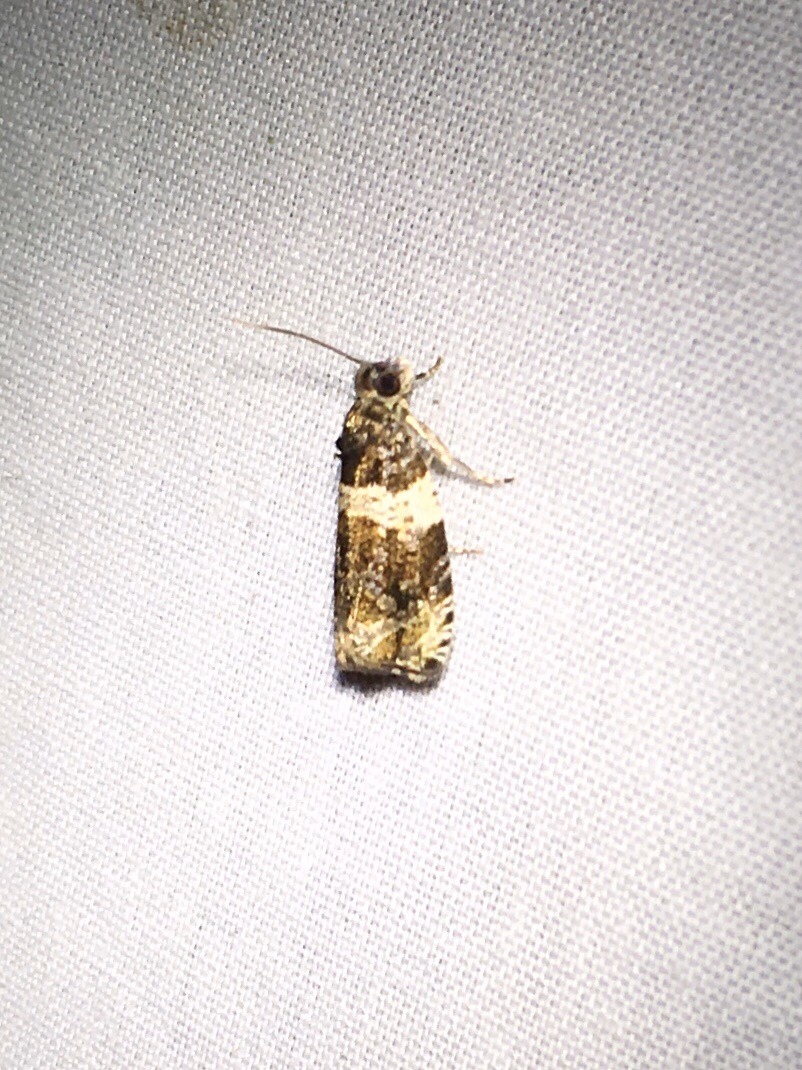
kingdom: Animalia
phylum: Arthropoda
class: Insecta
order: Lepidoptera
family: Tortricidae
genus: Olethreutes
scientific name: Olethreutes fasciatana
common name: Banded olethreutes moth
